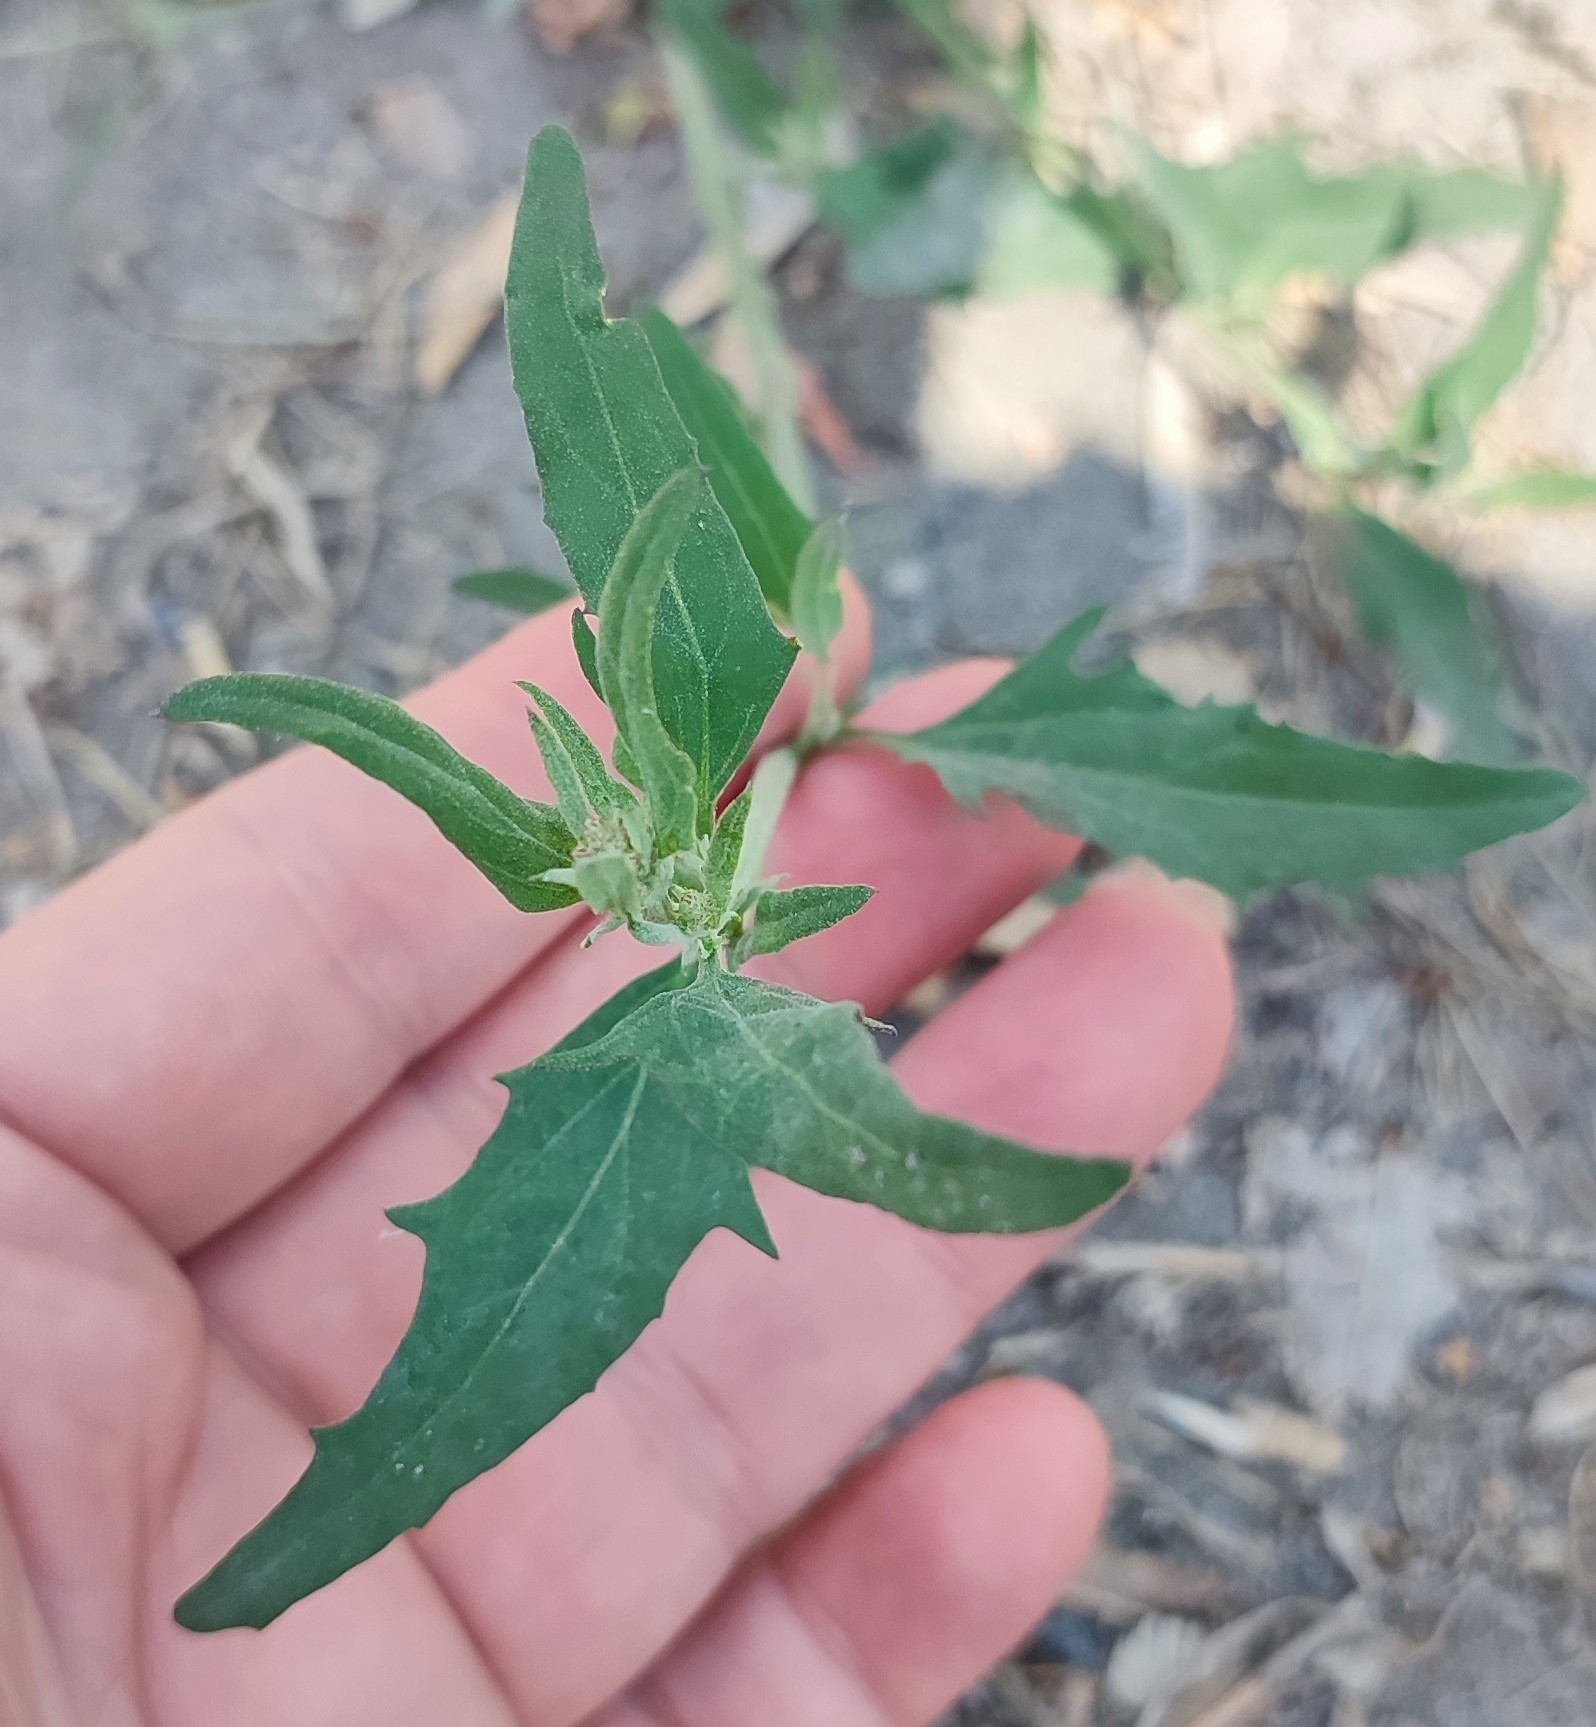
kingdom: Plantae
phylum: Tracheophyta
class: Magnoliopsida
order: Caryophyllales
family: Amaranthaceae
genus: Atriplex
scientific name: Atriplex patula
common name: Common orache
